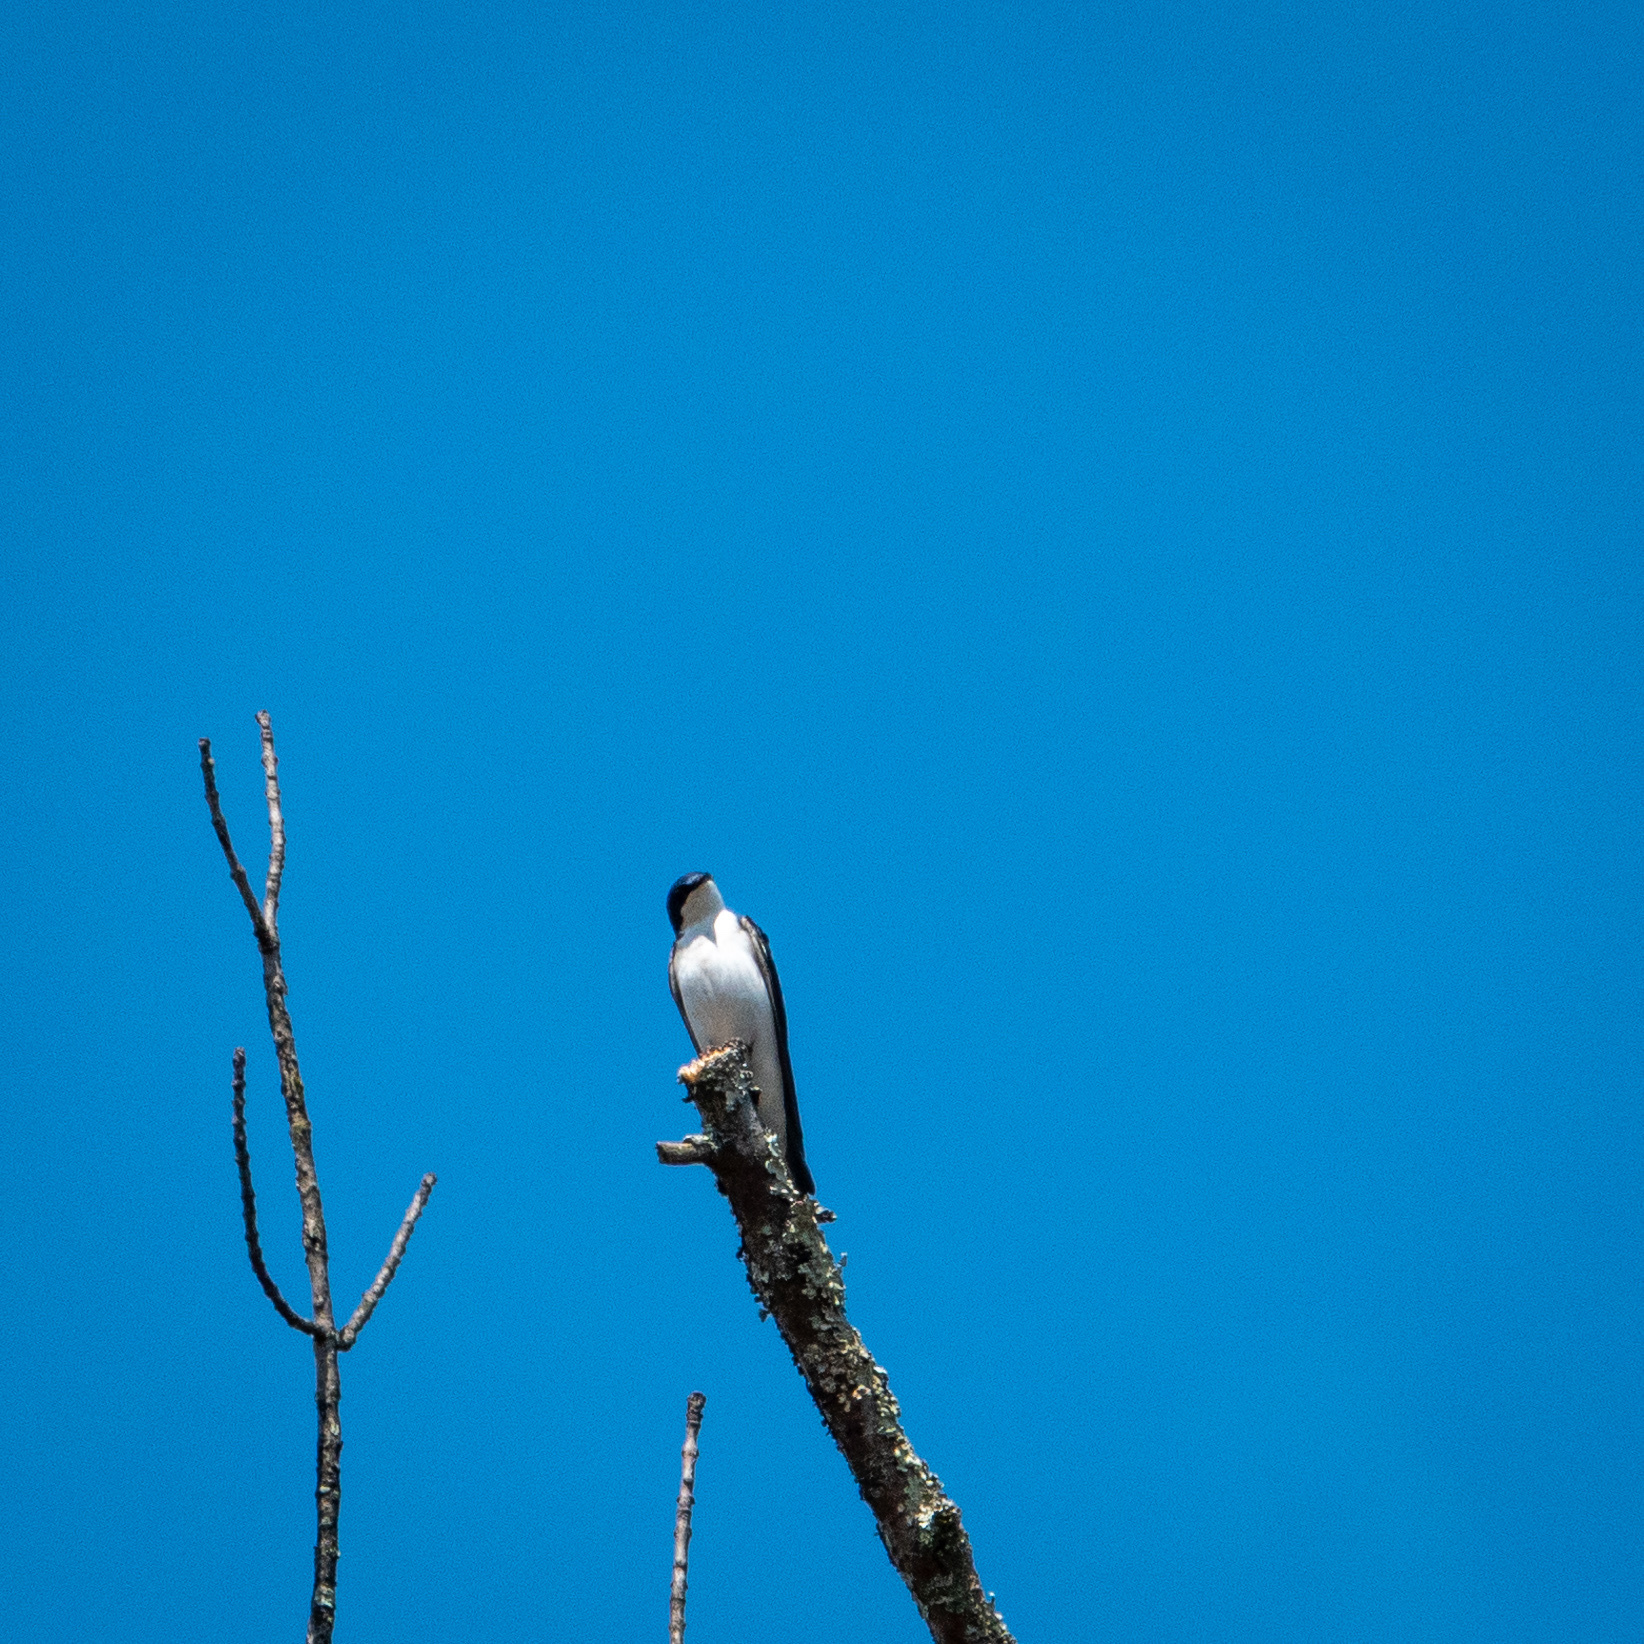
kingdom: Animalia
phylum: Chordata
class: Aves
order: Passeriformes
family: Hirundinidae
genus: Tachycineta
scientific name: Tachycineta bicolor
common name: Tree swallow
